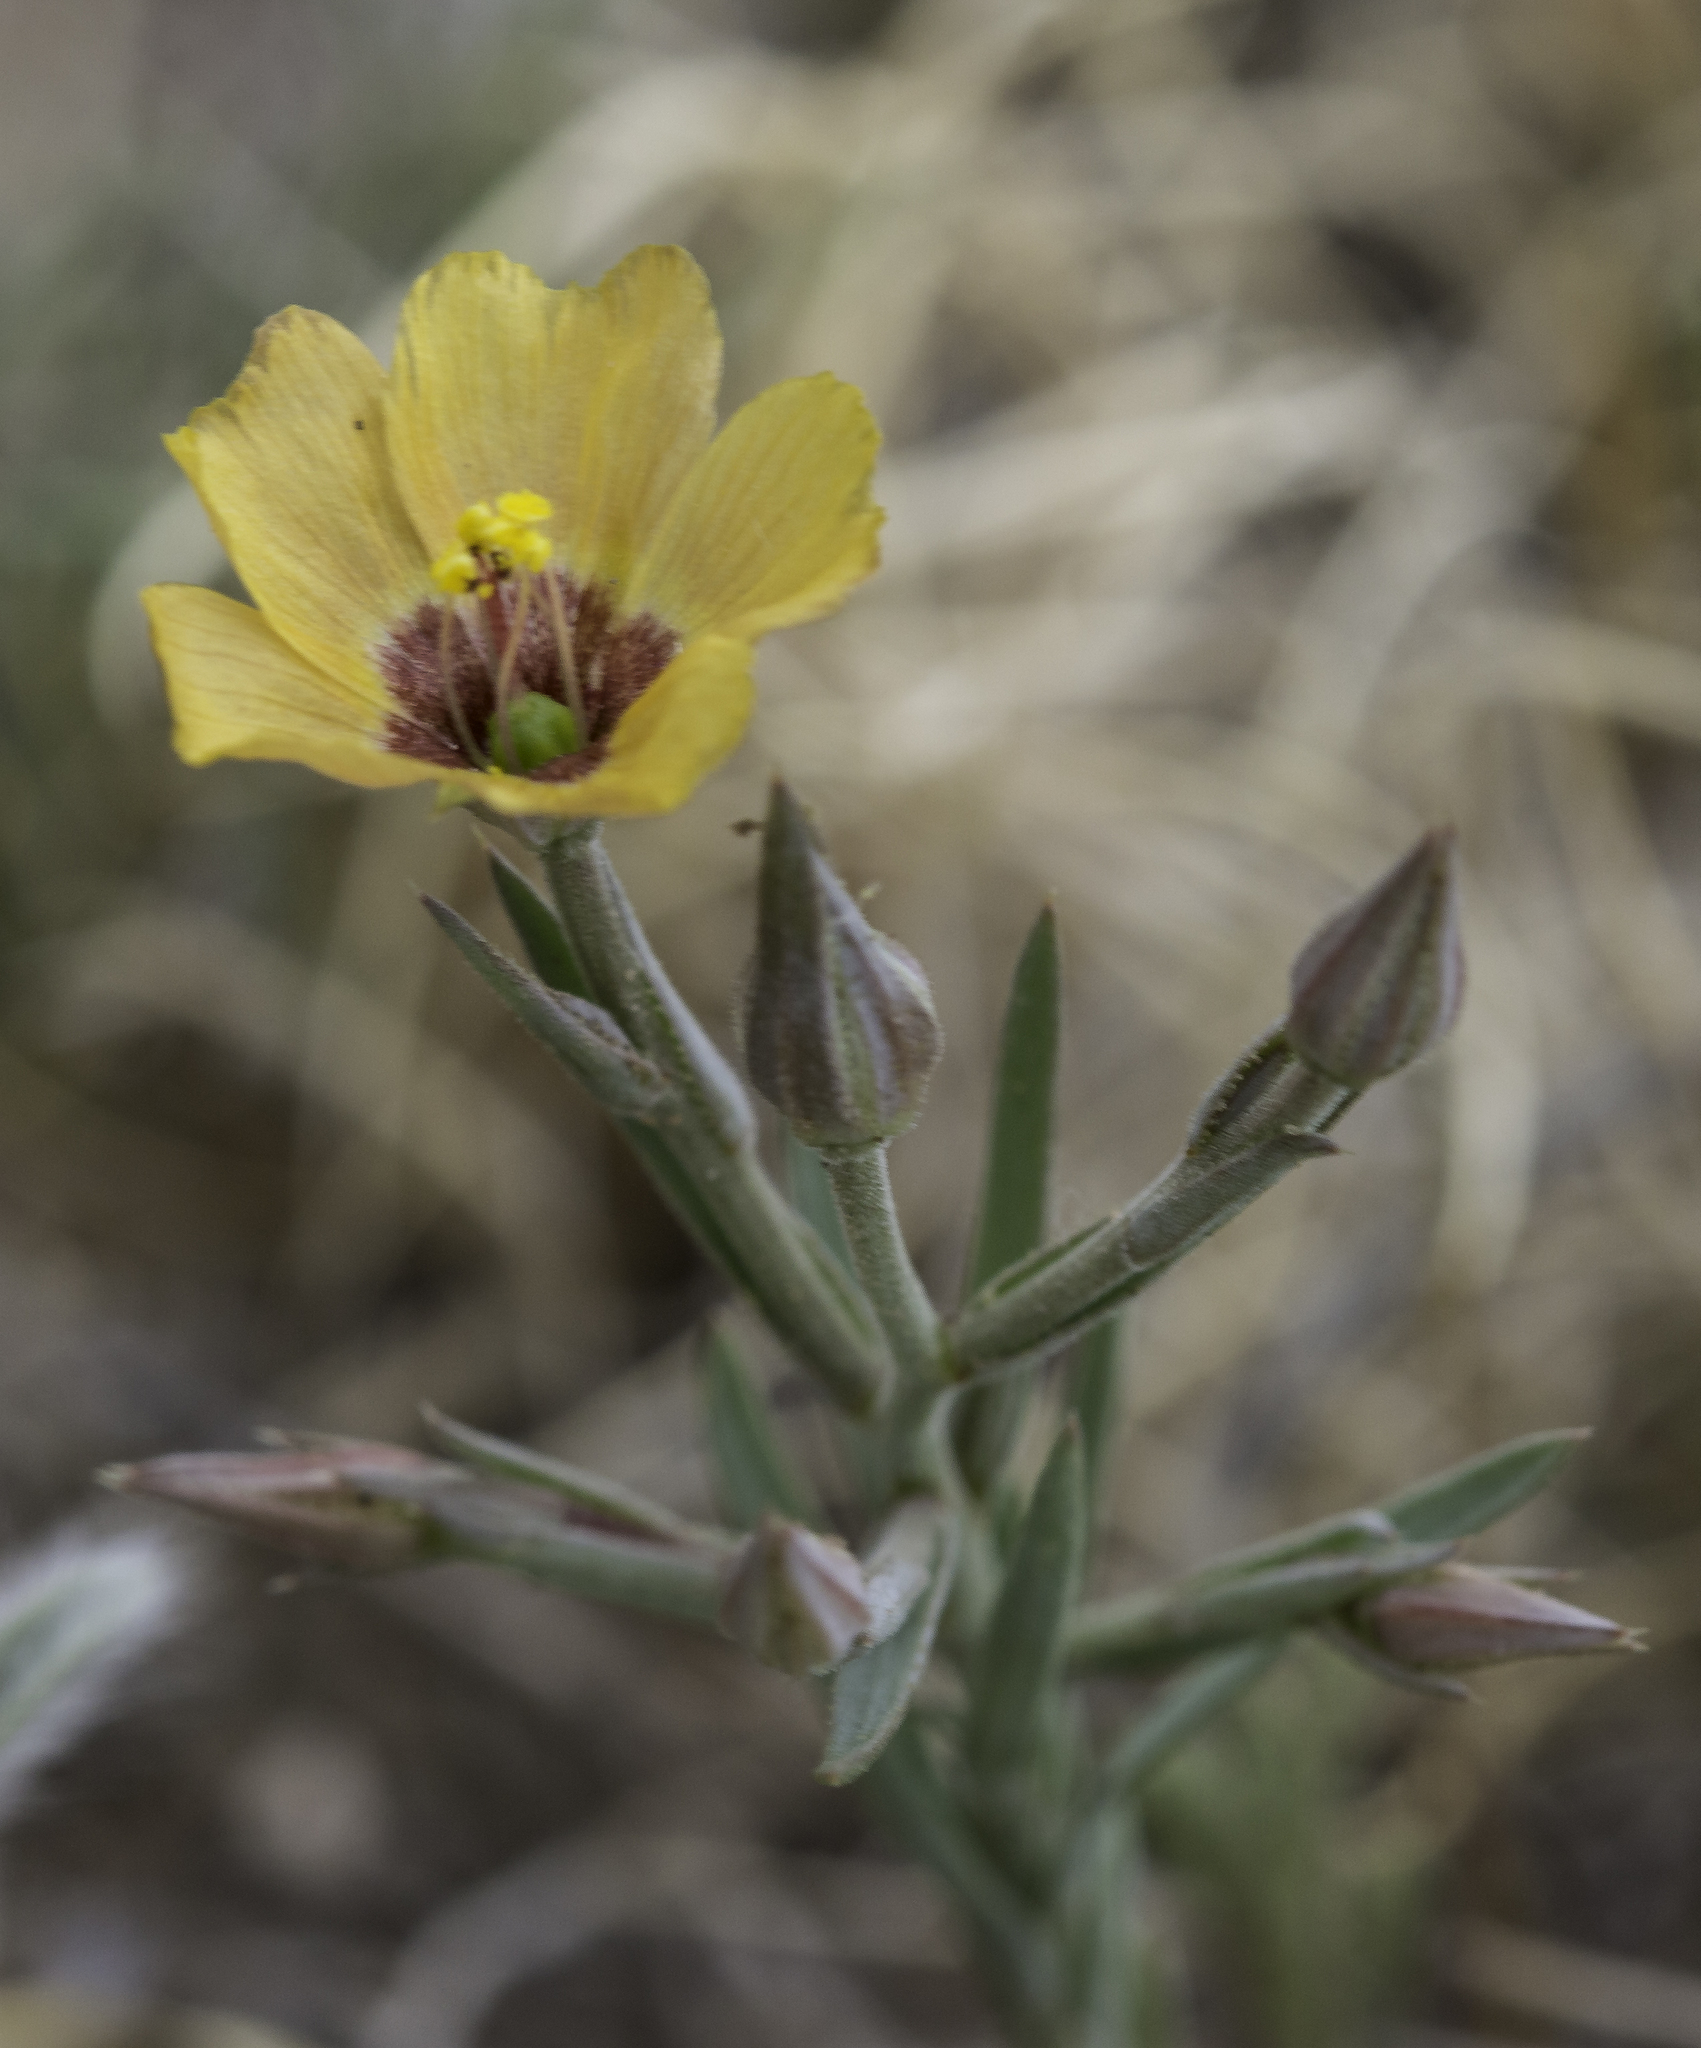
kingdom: Plantae
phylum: Tracheophyta
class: Magnoliopsida
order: Malpighiales
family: Linaceae
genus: Linum
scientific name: Linum puberulum
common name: Plains flax
